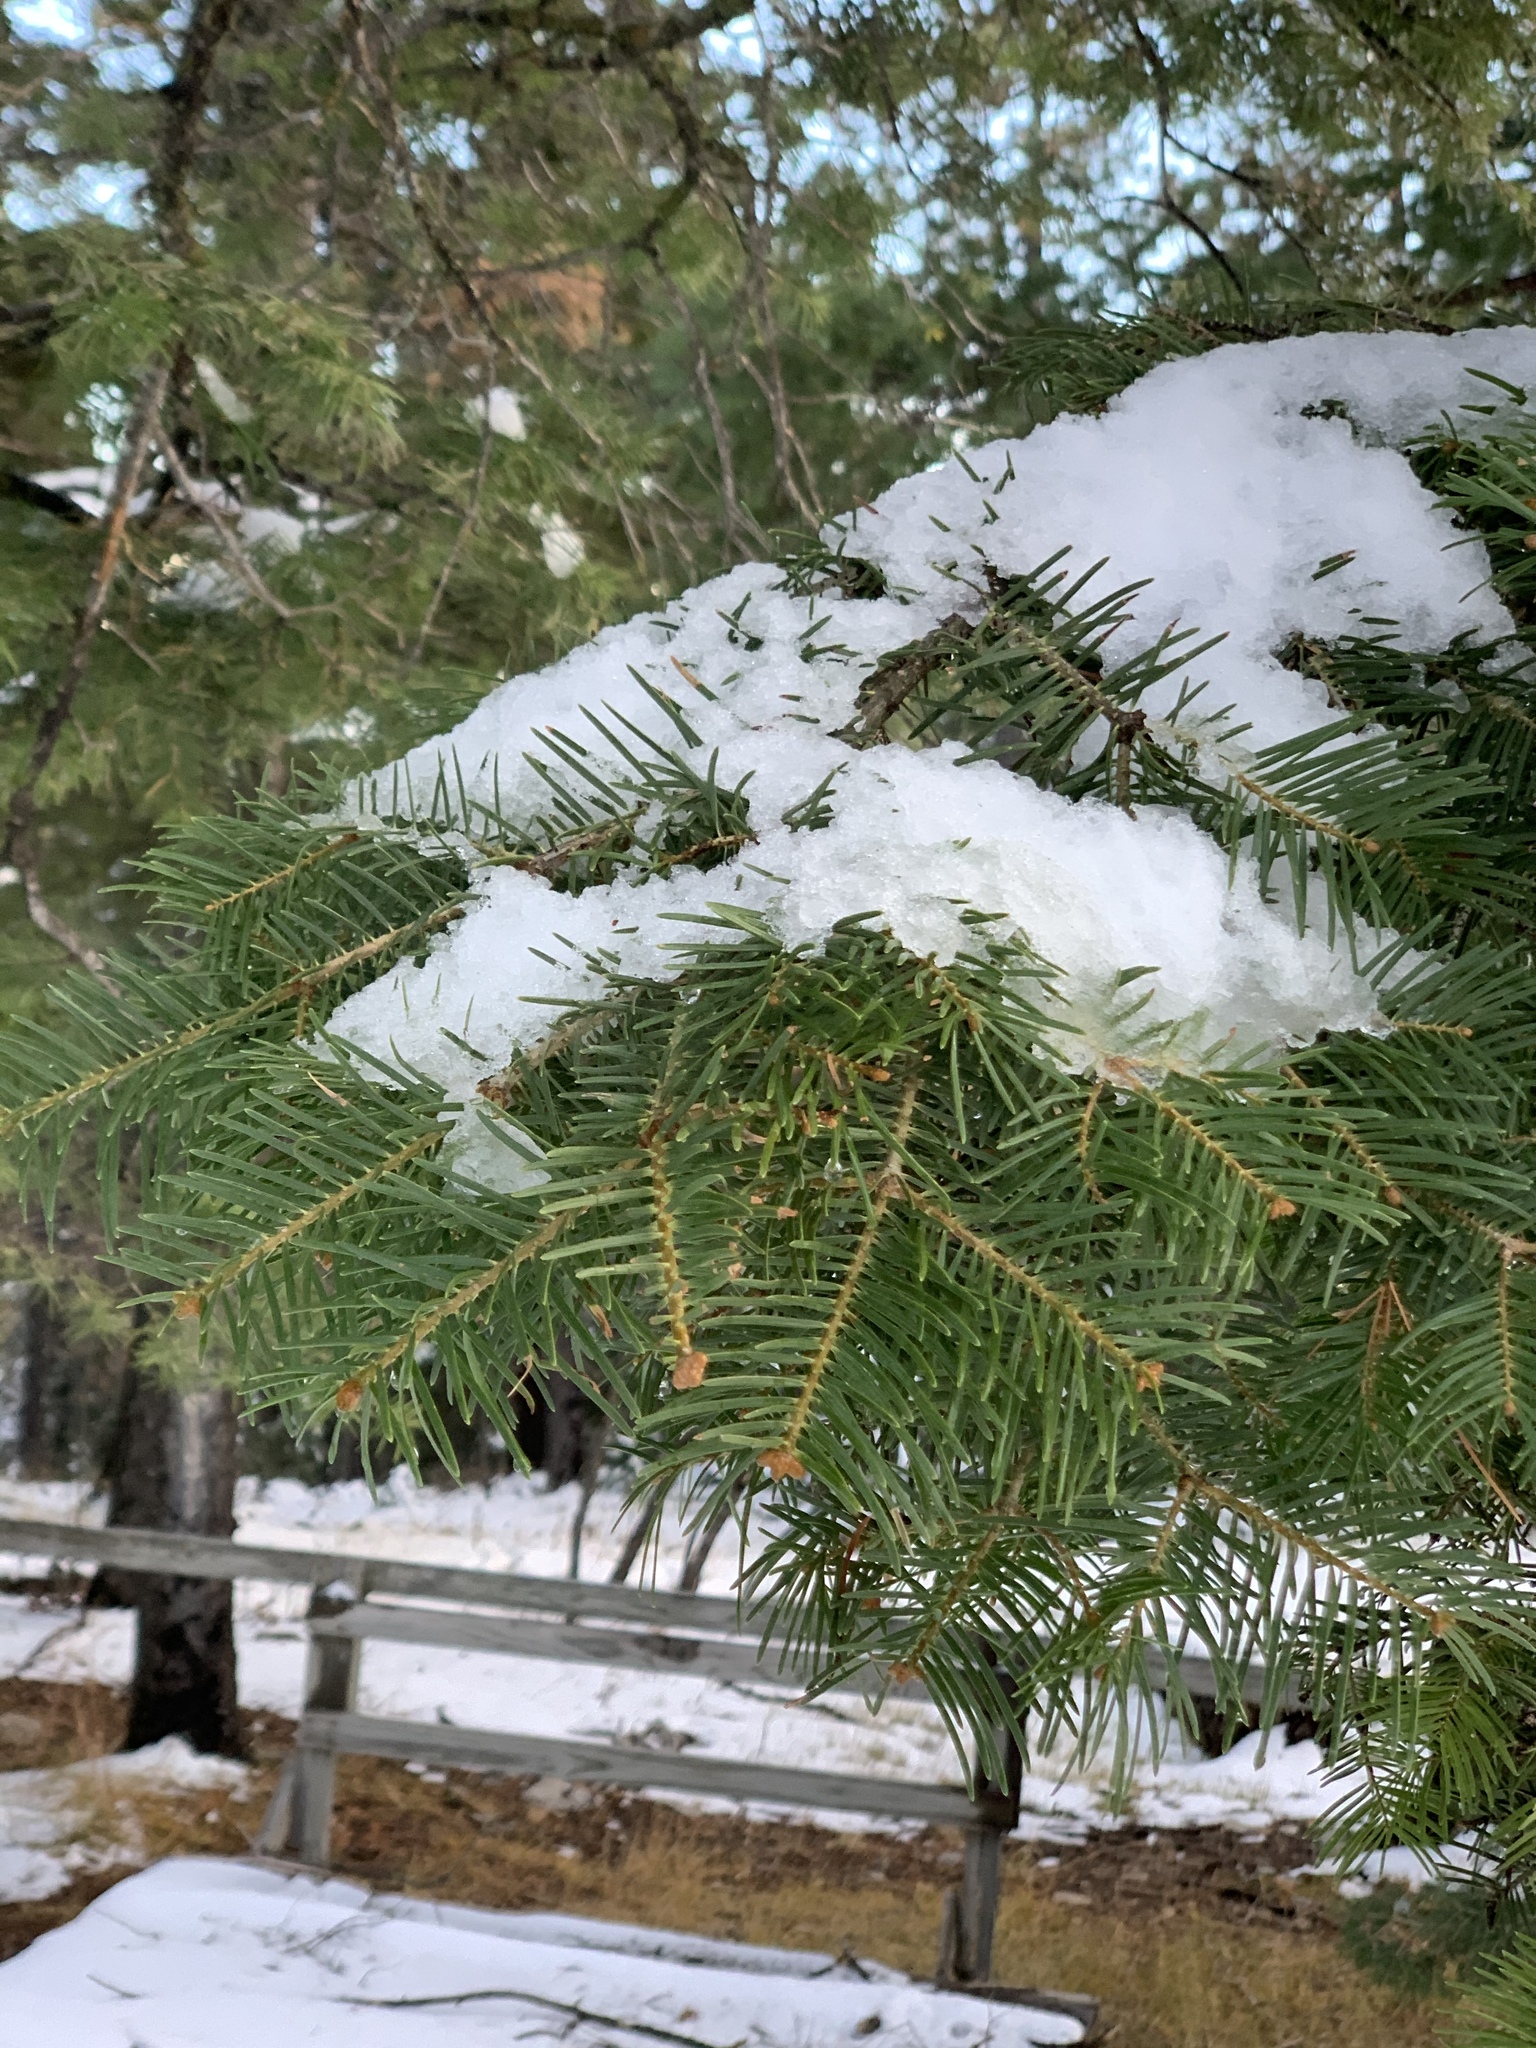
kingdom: Plantae
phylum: Tracheophyta
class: Pinopsida
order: Pinales
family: Pinaceae
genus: Abies
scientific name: Abies concolor
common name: Colorado fir
